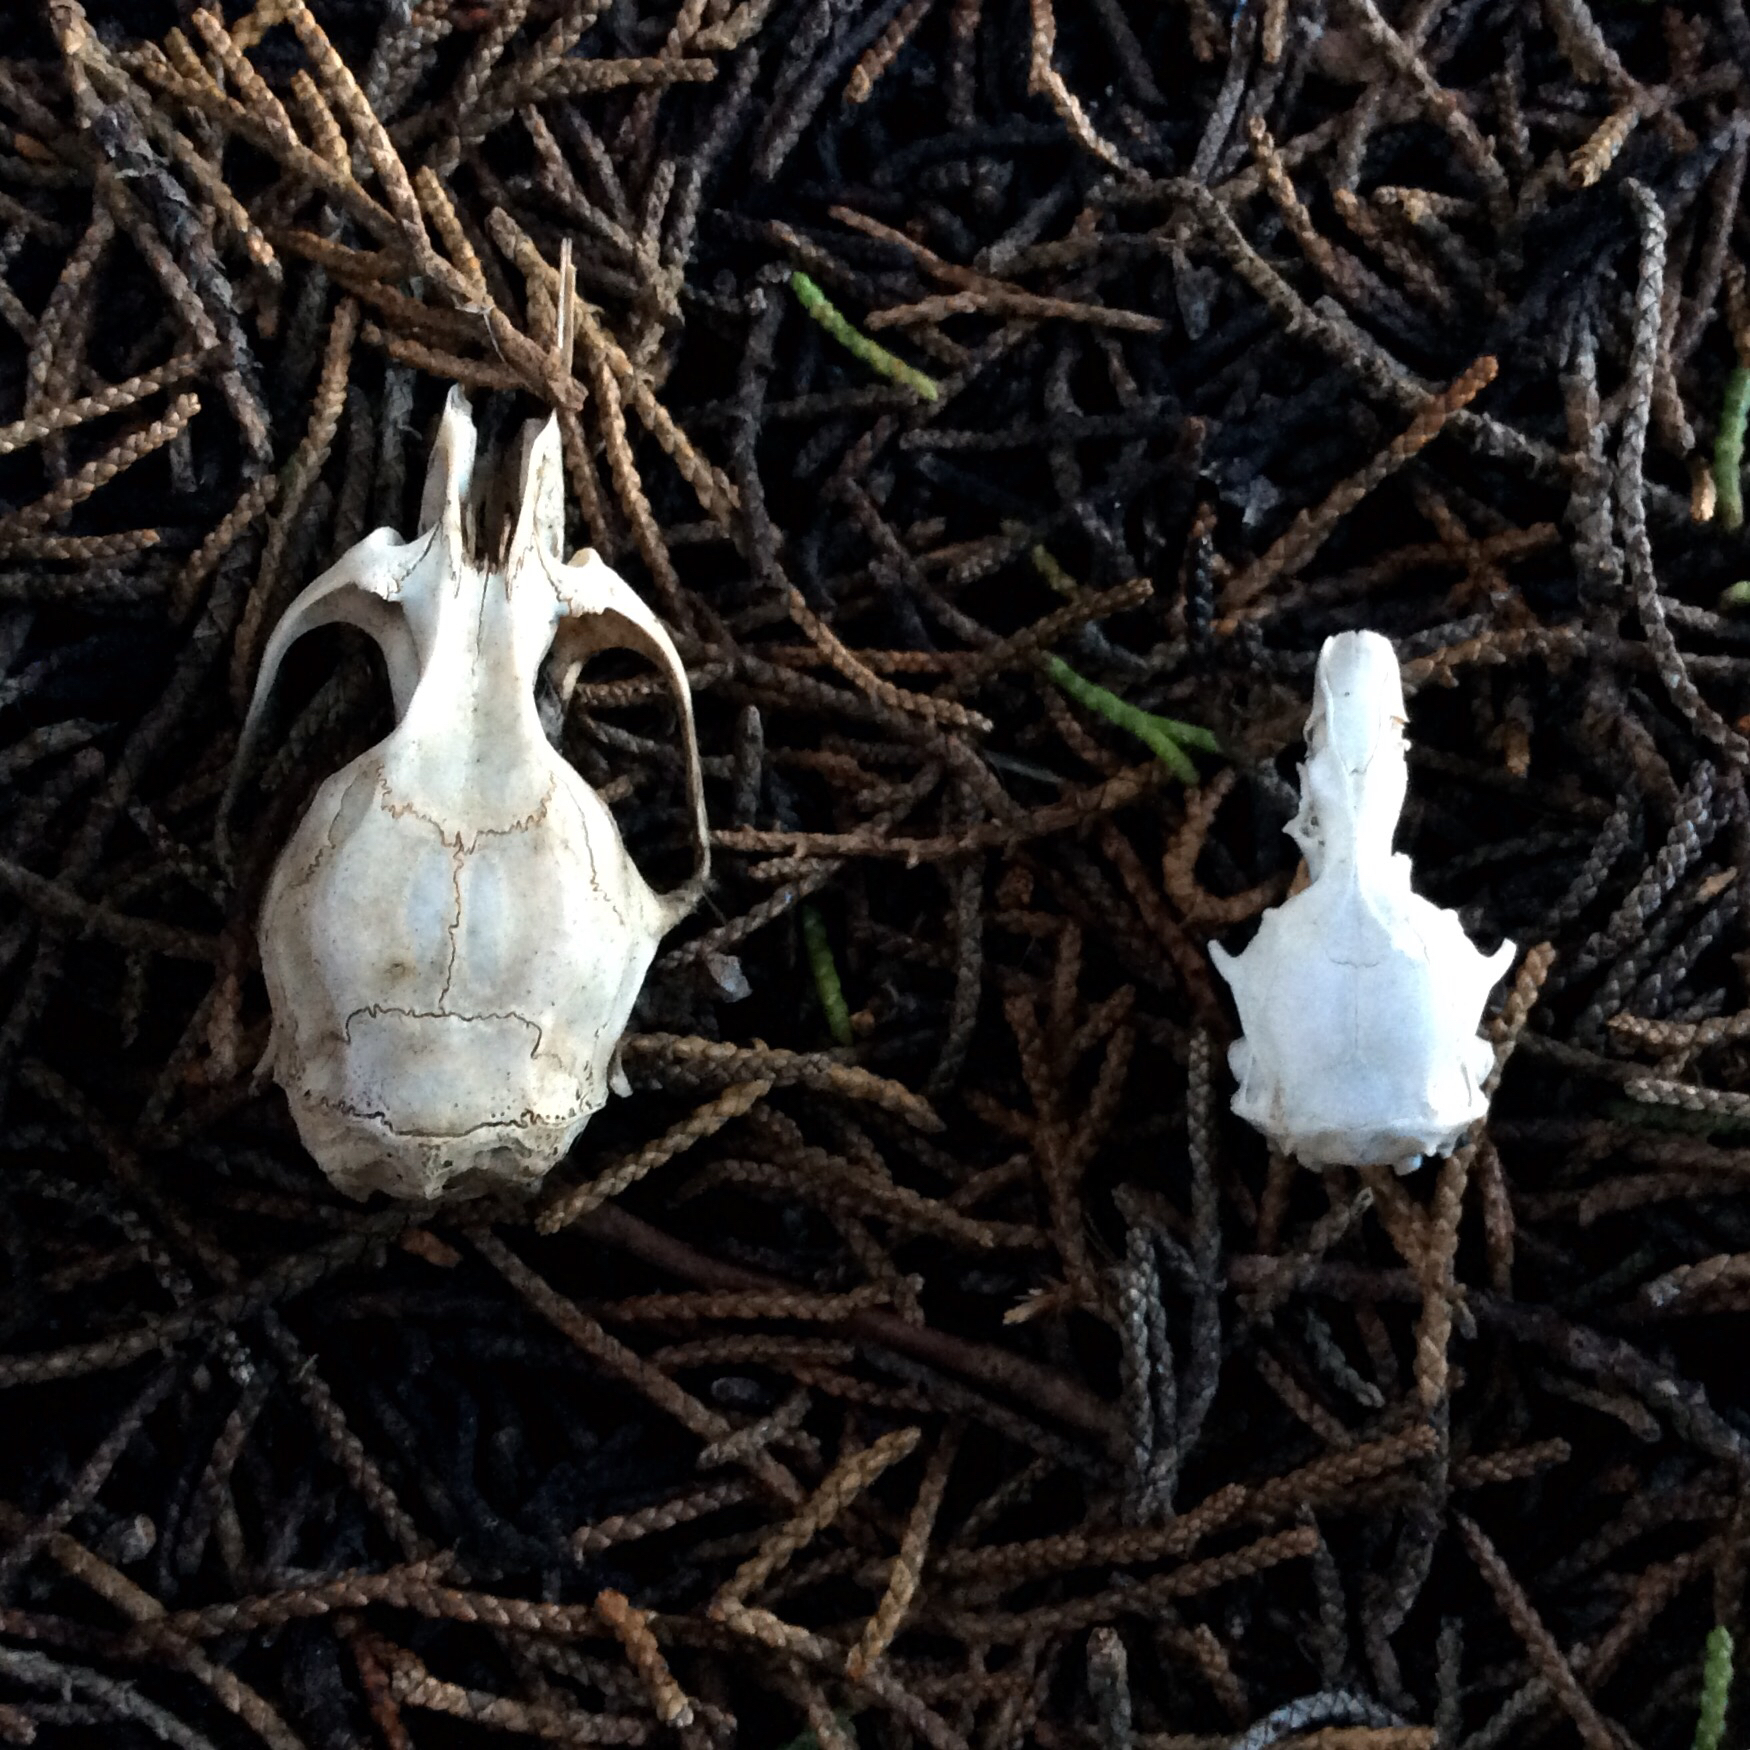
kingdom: Animalia
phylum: Chordata
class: Mammalia
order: Rodentia
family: Cricetidae
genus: Microtus
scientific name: Microtus californicus
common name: California vole
